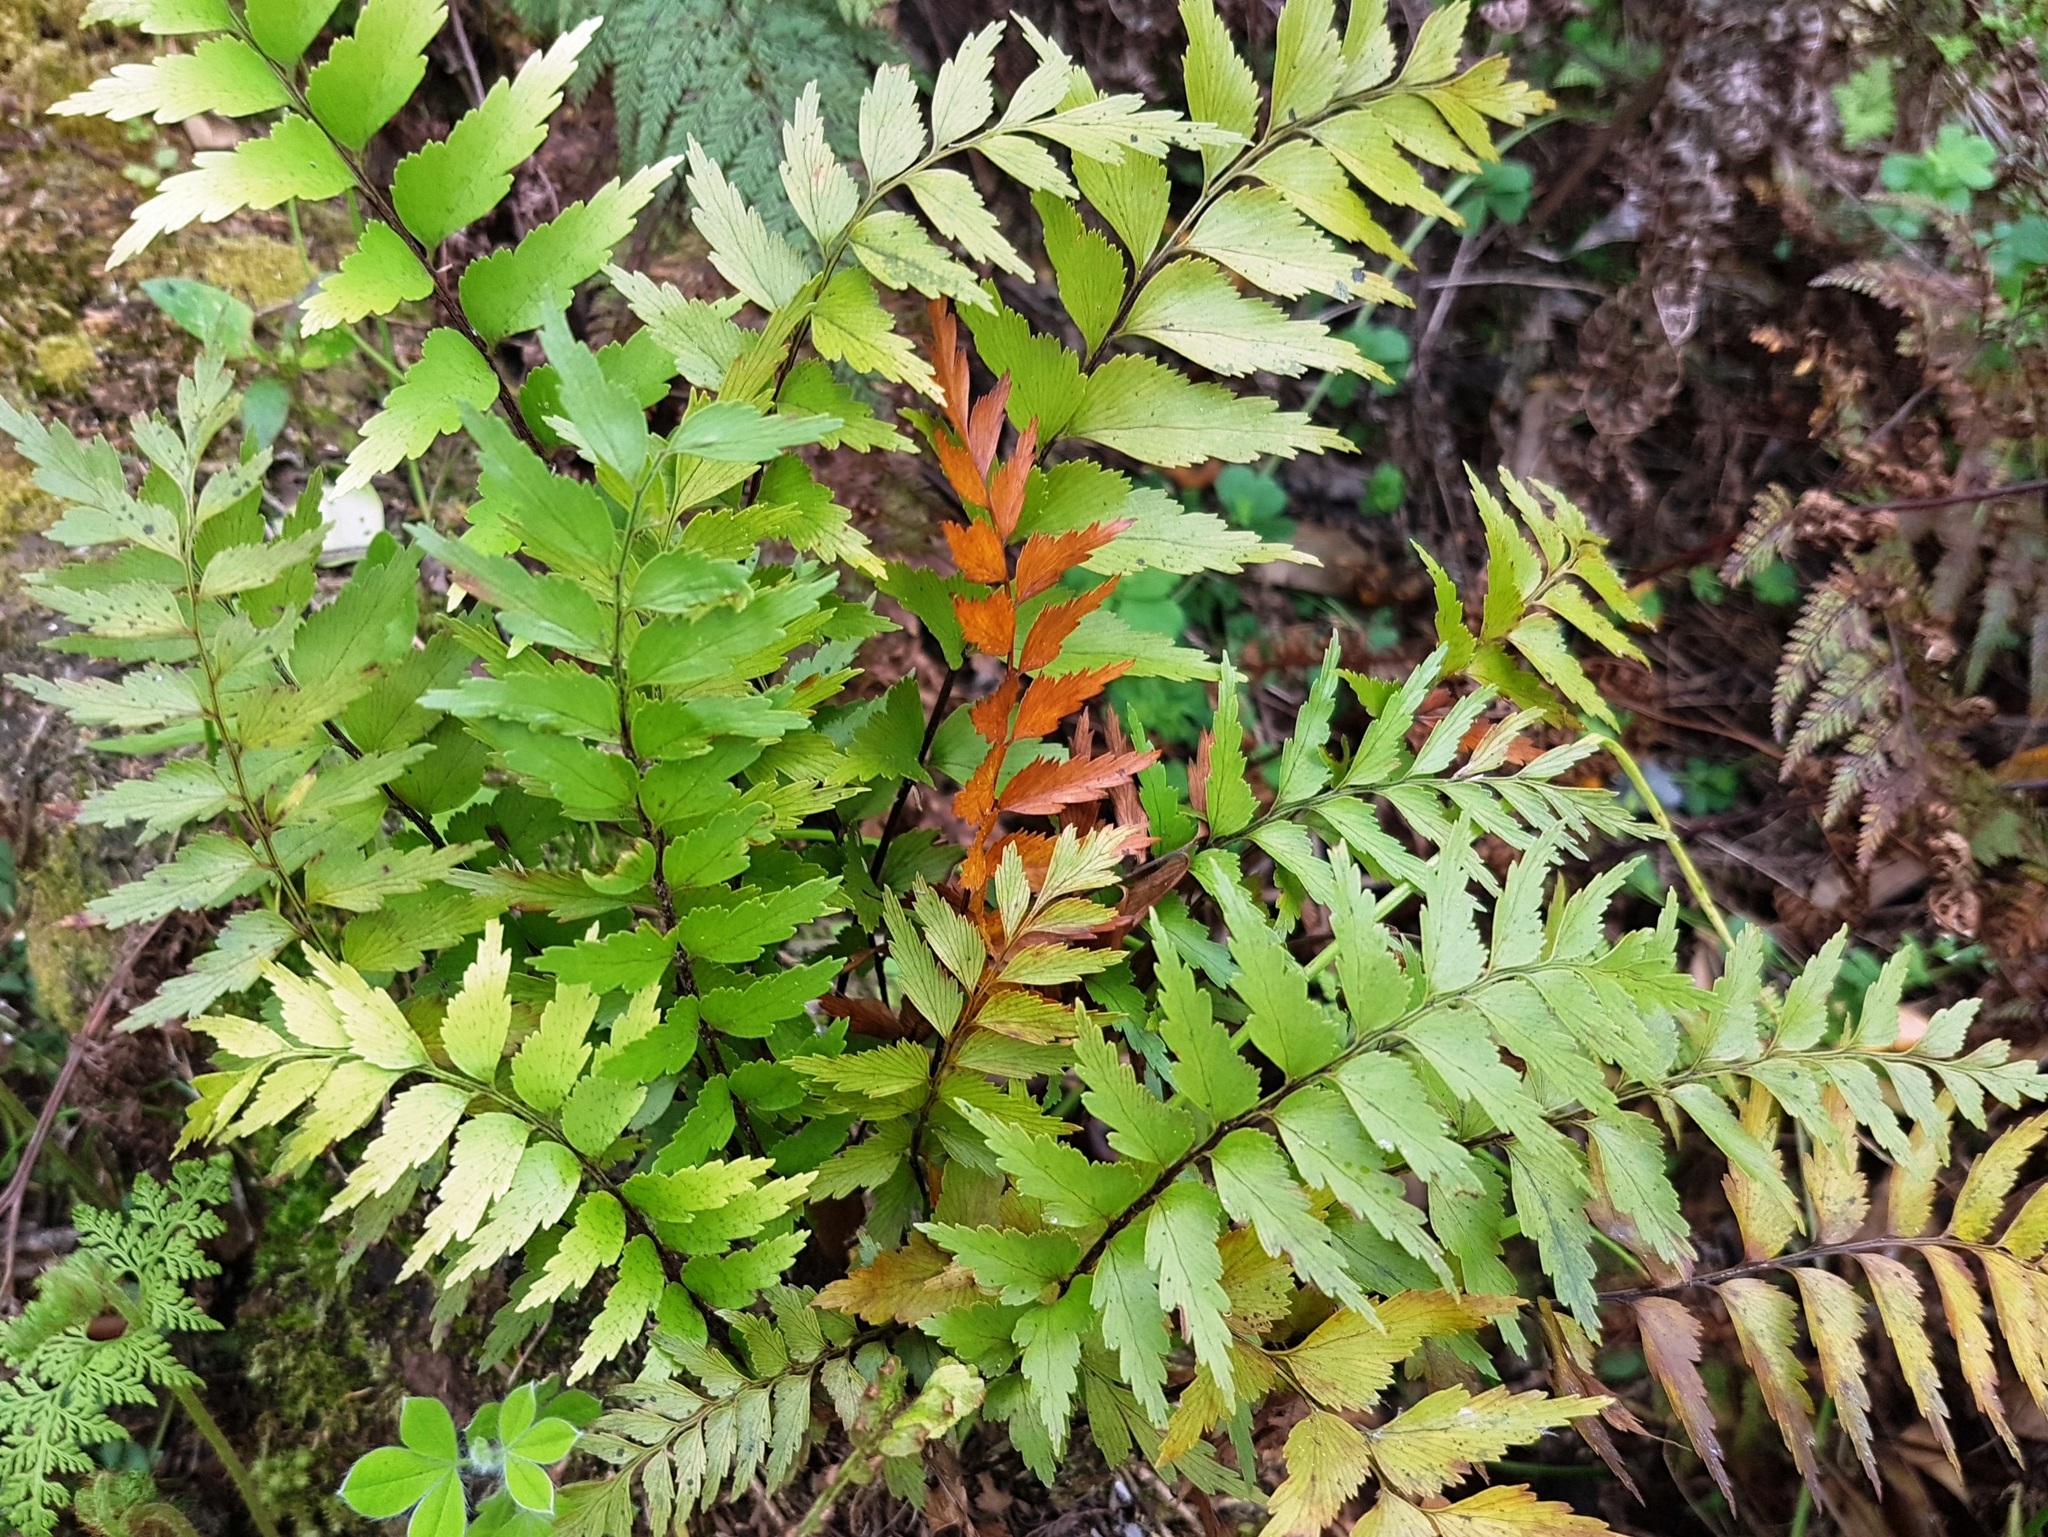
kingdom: Plantae
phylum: Tracheophyta
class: Polypodiopsida
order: Polypodiales
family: Aspleniaceae
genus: Asplenium
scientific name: Asplenium polyodon
